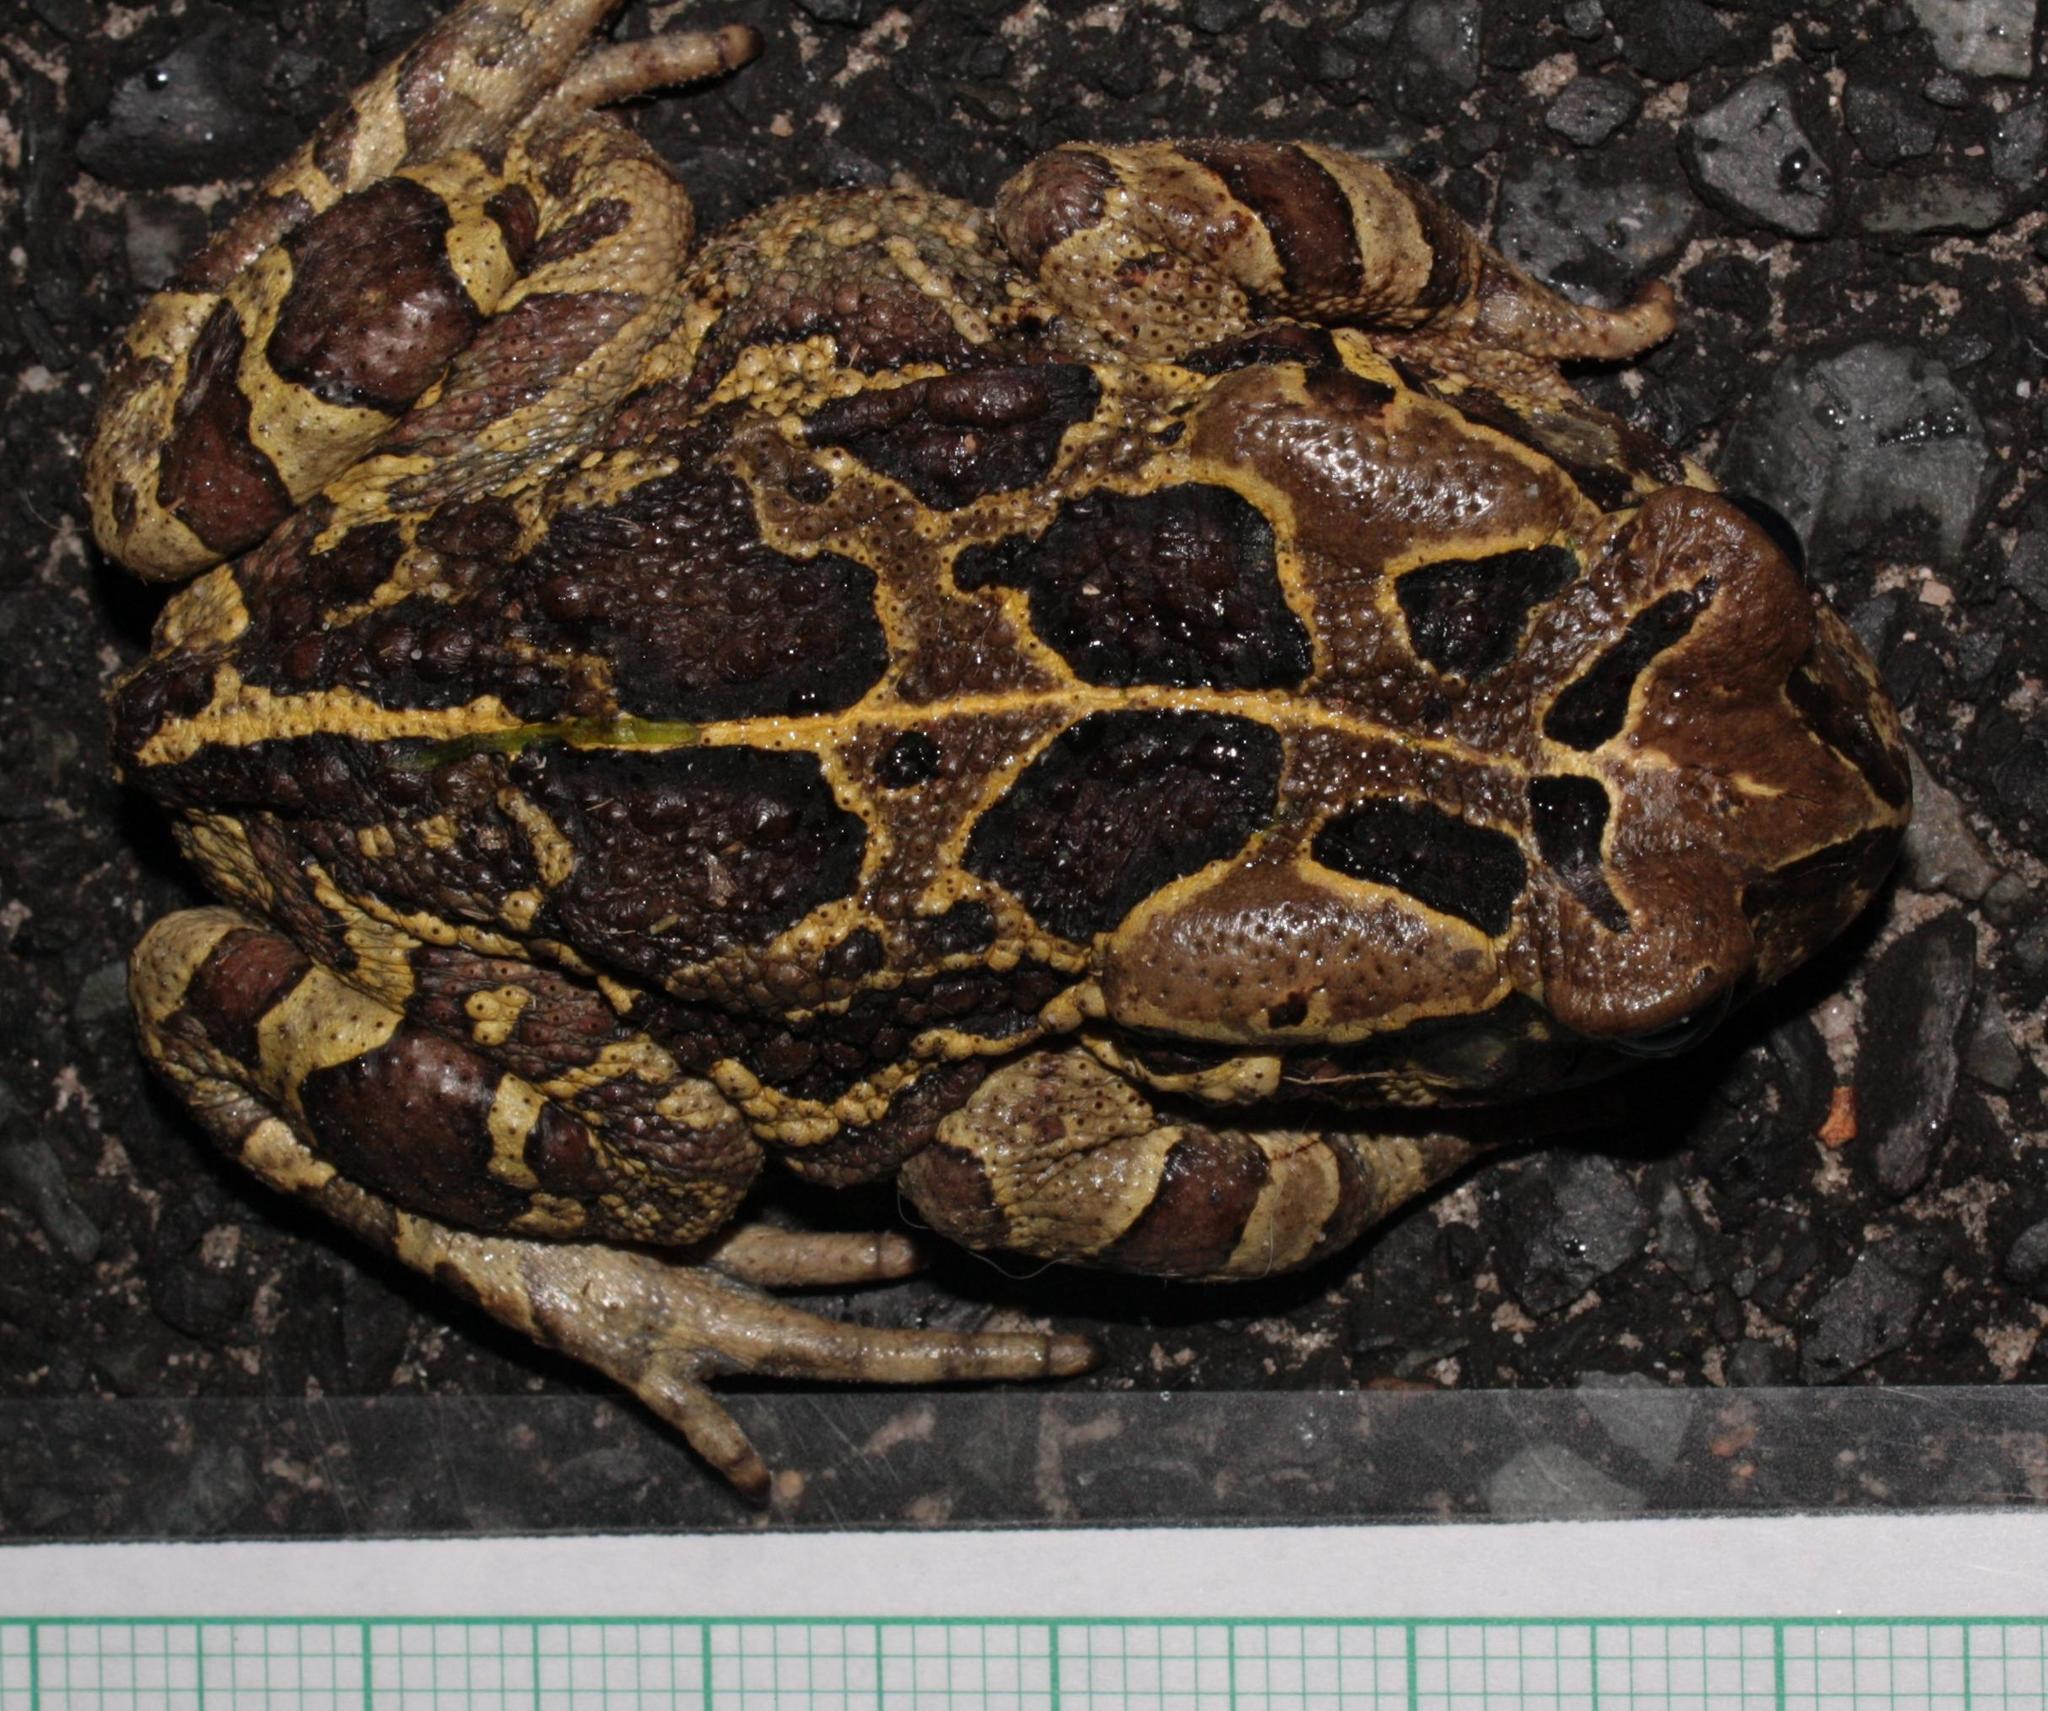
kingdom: Animalia
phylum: Chordata
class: Amphibia
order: Anura
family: Bufonidae
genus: Sclerophrys
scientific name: Sclerophrys pantherina
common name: Panther toad
